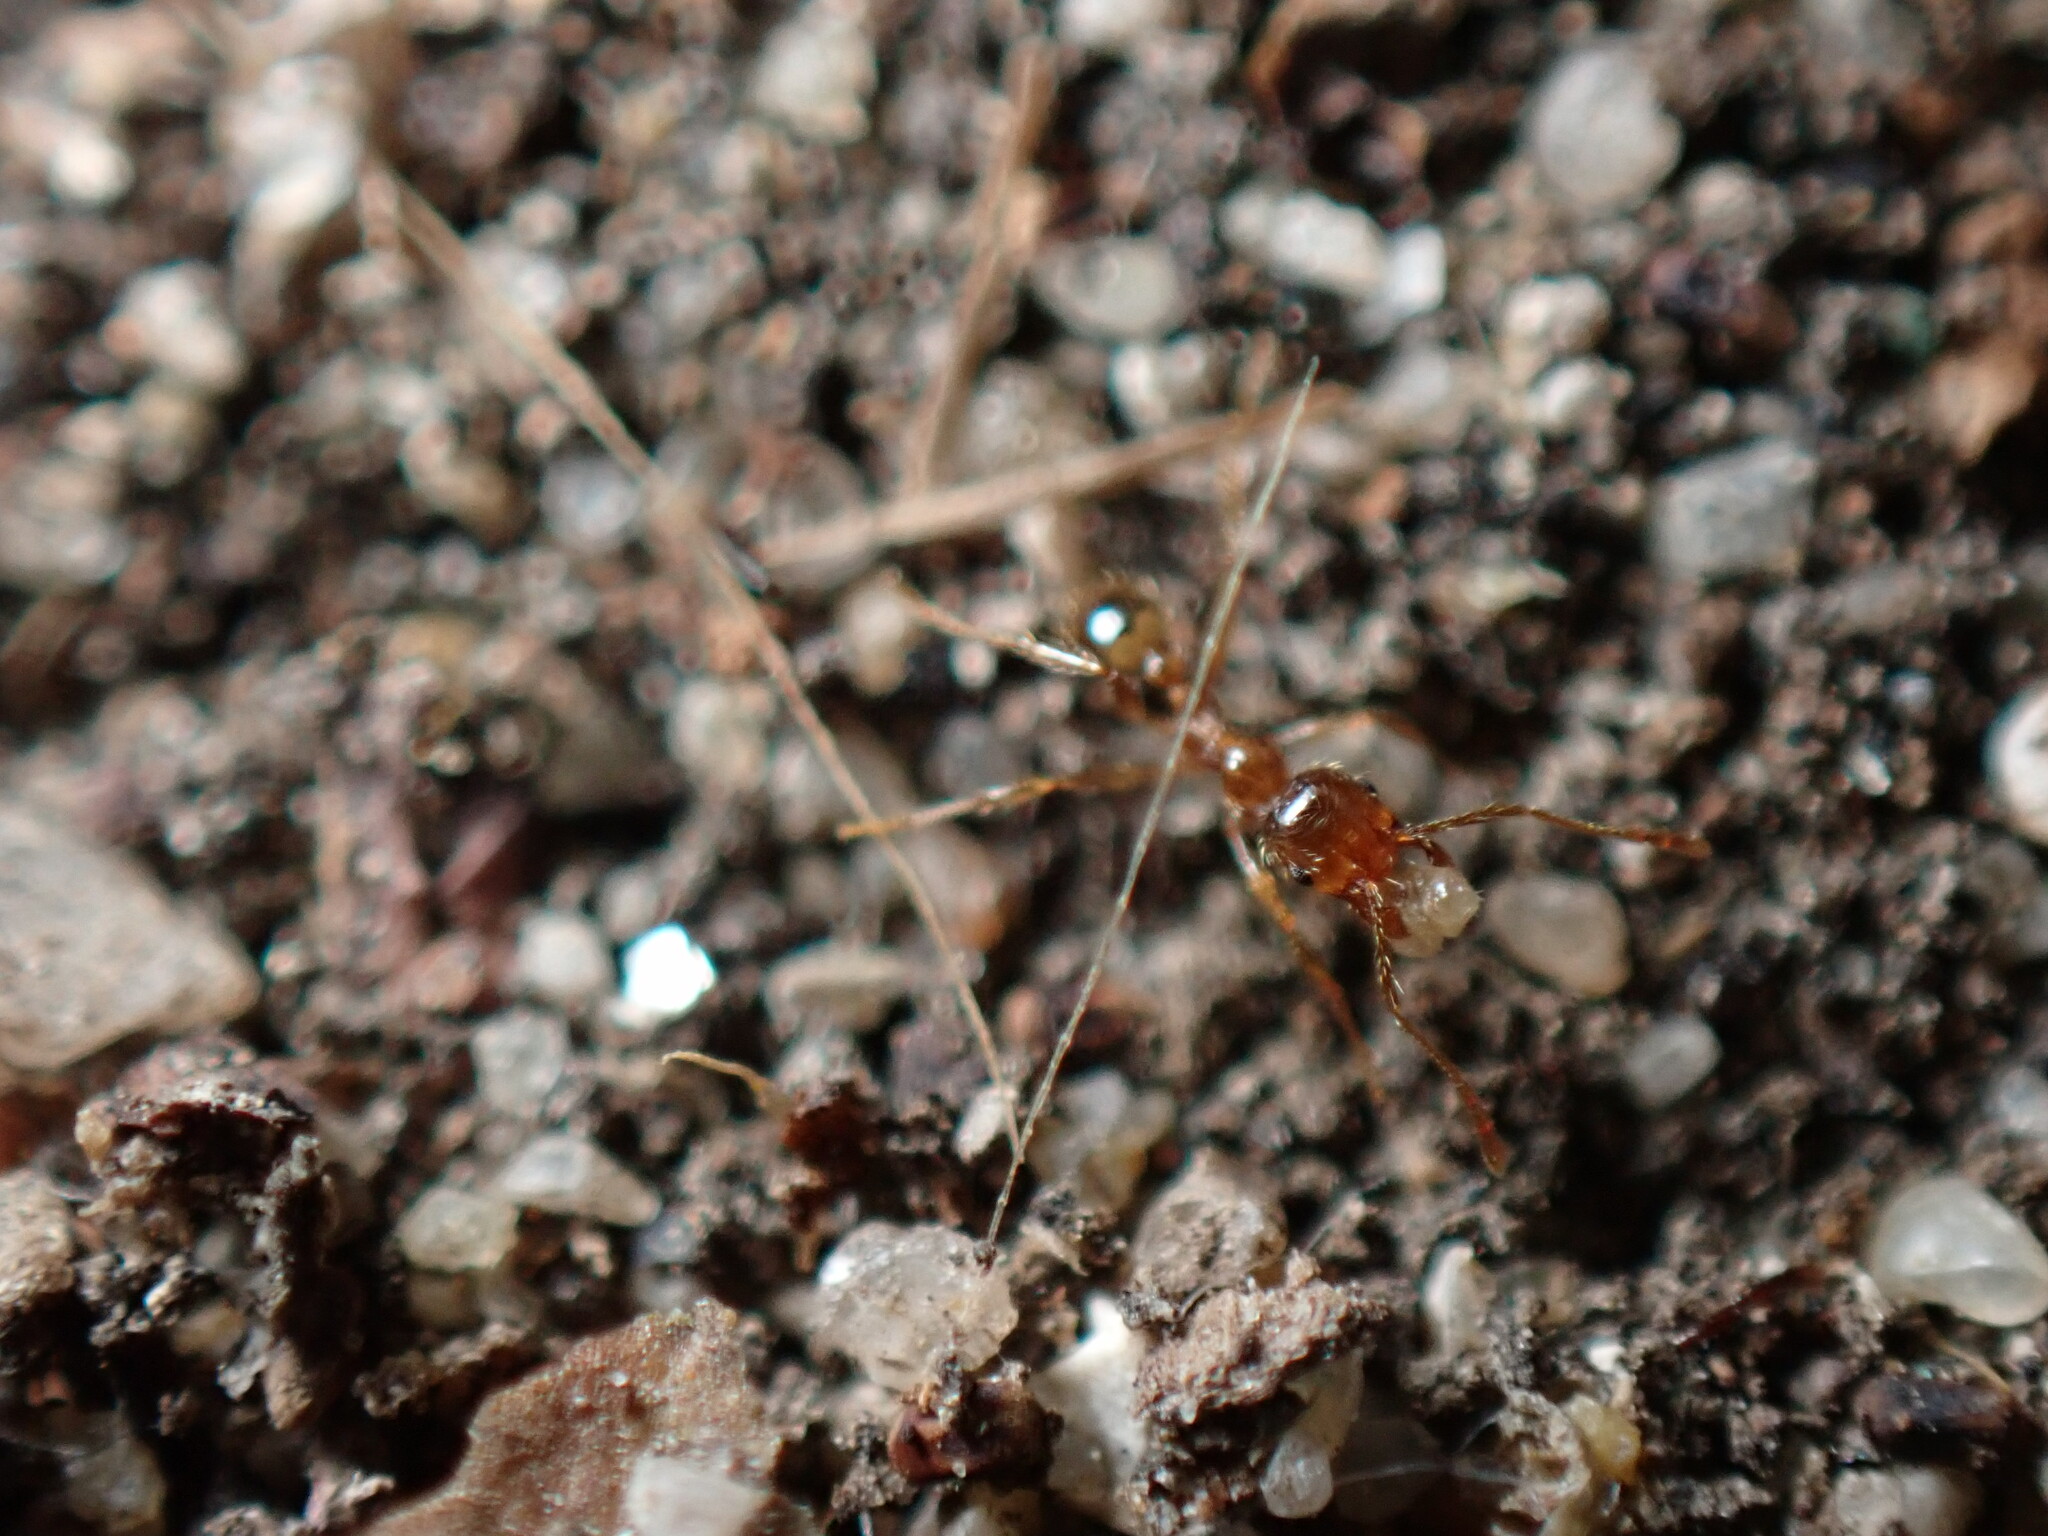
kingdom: Animalia
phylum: Arthropoda
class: Insecta
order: Hymenoptera
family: Formicidae
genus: Pheidole
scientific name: Pheidole pallidula
